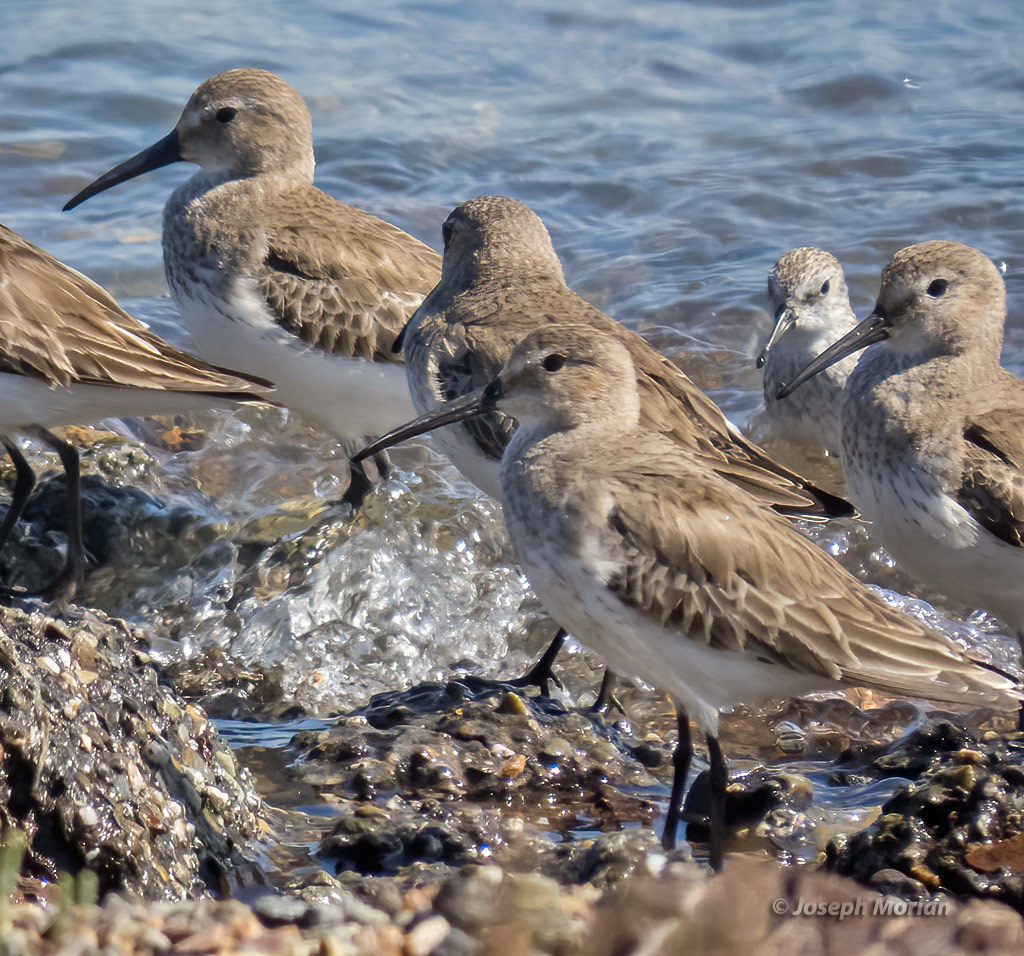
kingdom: Animalia
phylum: Chordata
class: Aves
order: Charadriiformes
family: Scolopacidae
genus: Calidris
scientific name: Calidris alpina
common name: Dunlin
